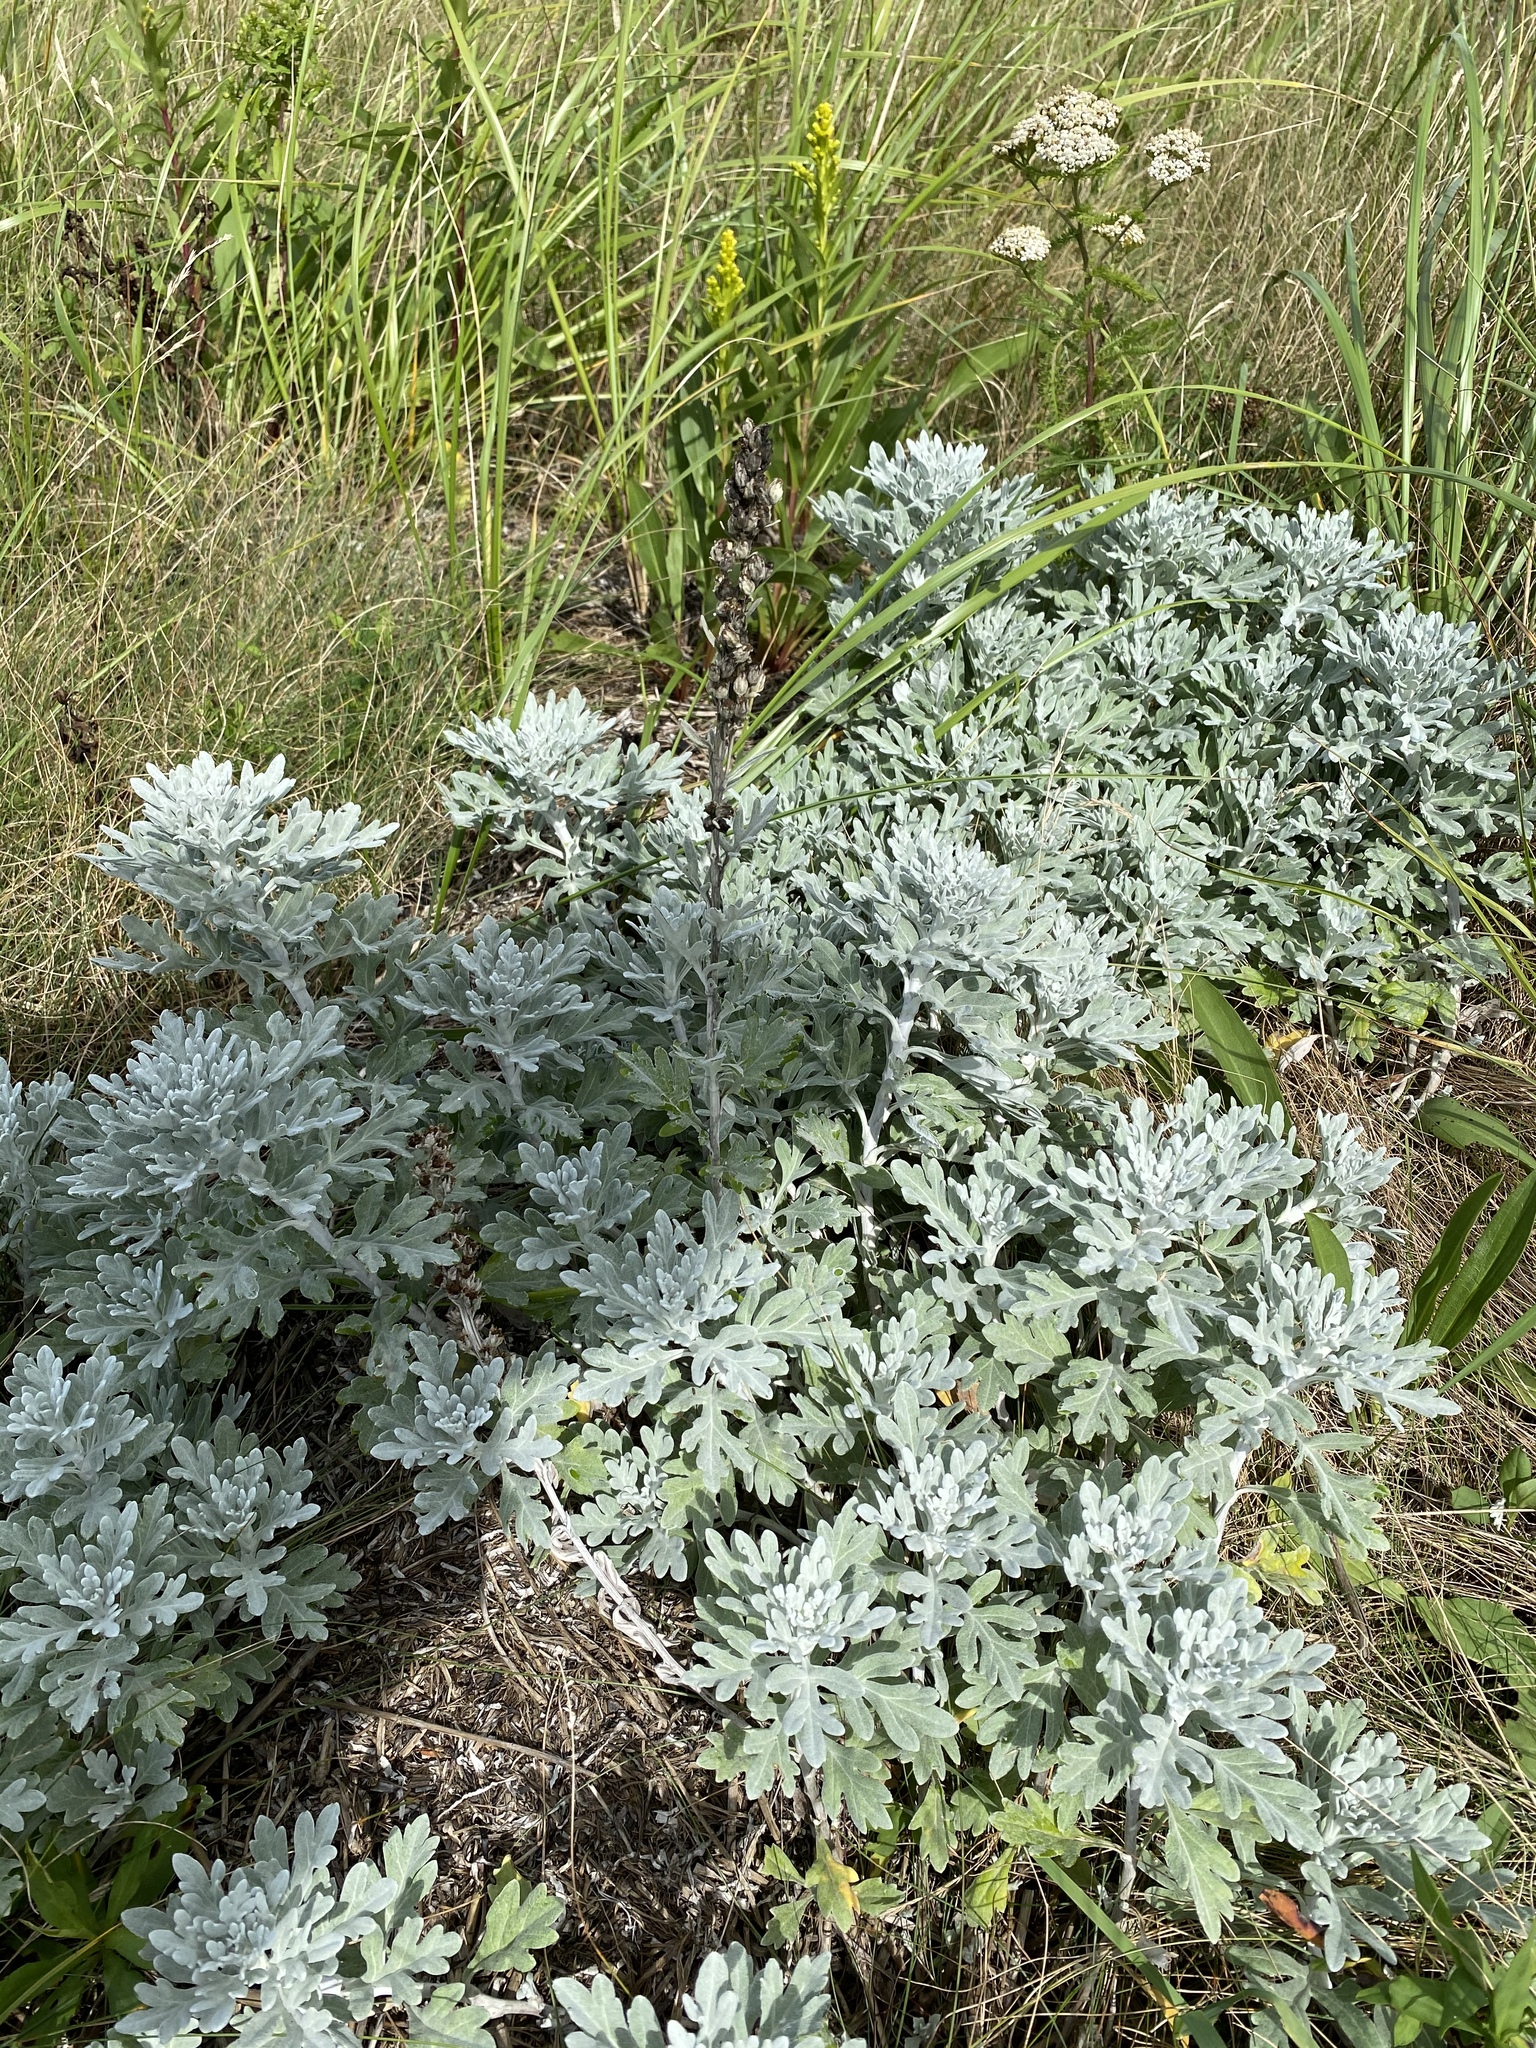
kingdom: Plantae
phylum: Tracheophyta
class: Magnoliopsida
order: Asterales
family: Asteraceae
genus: Artemisia
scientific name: Artemisia stelleriana
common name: Beach wormwood
